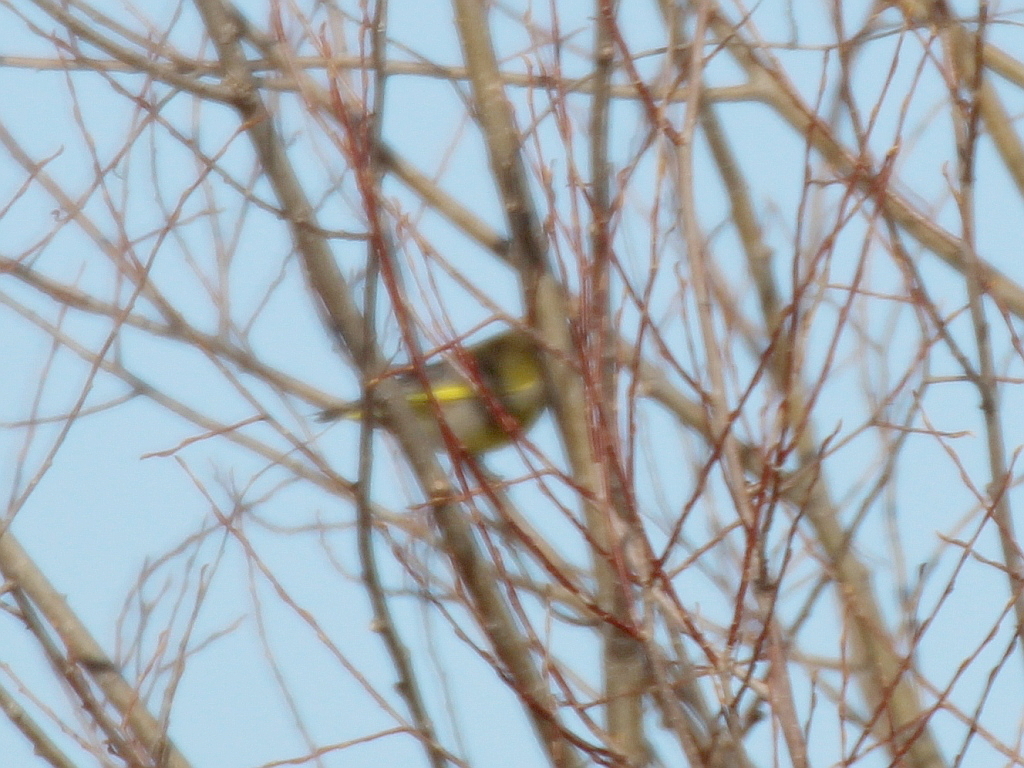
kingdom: Plantae
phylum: Tracheophyta
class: Liliopsida
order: Poales
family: Poaceae
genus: Chloris
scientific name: Chloris chloris
